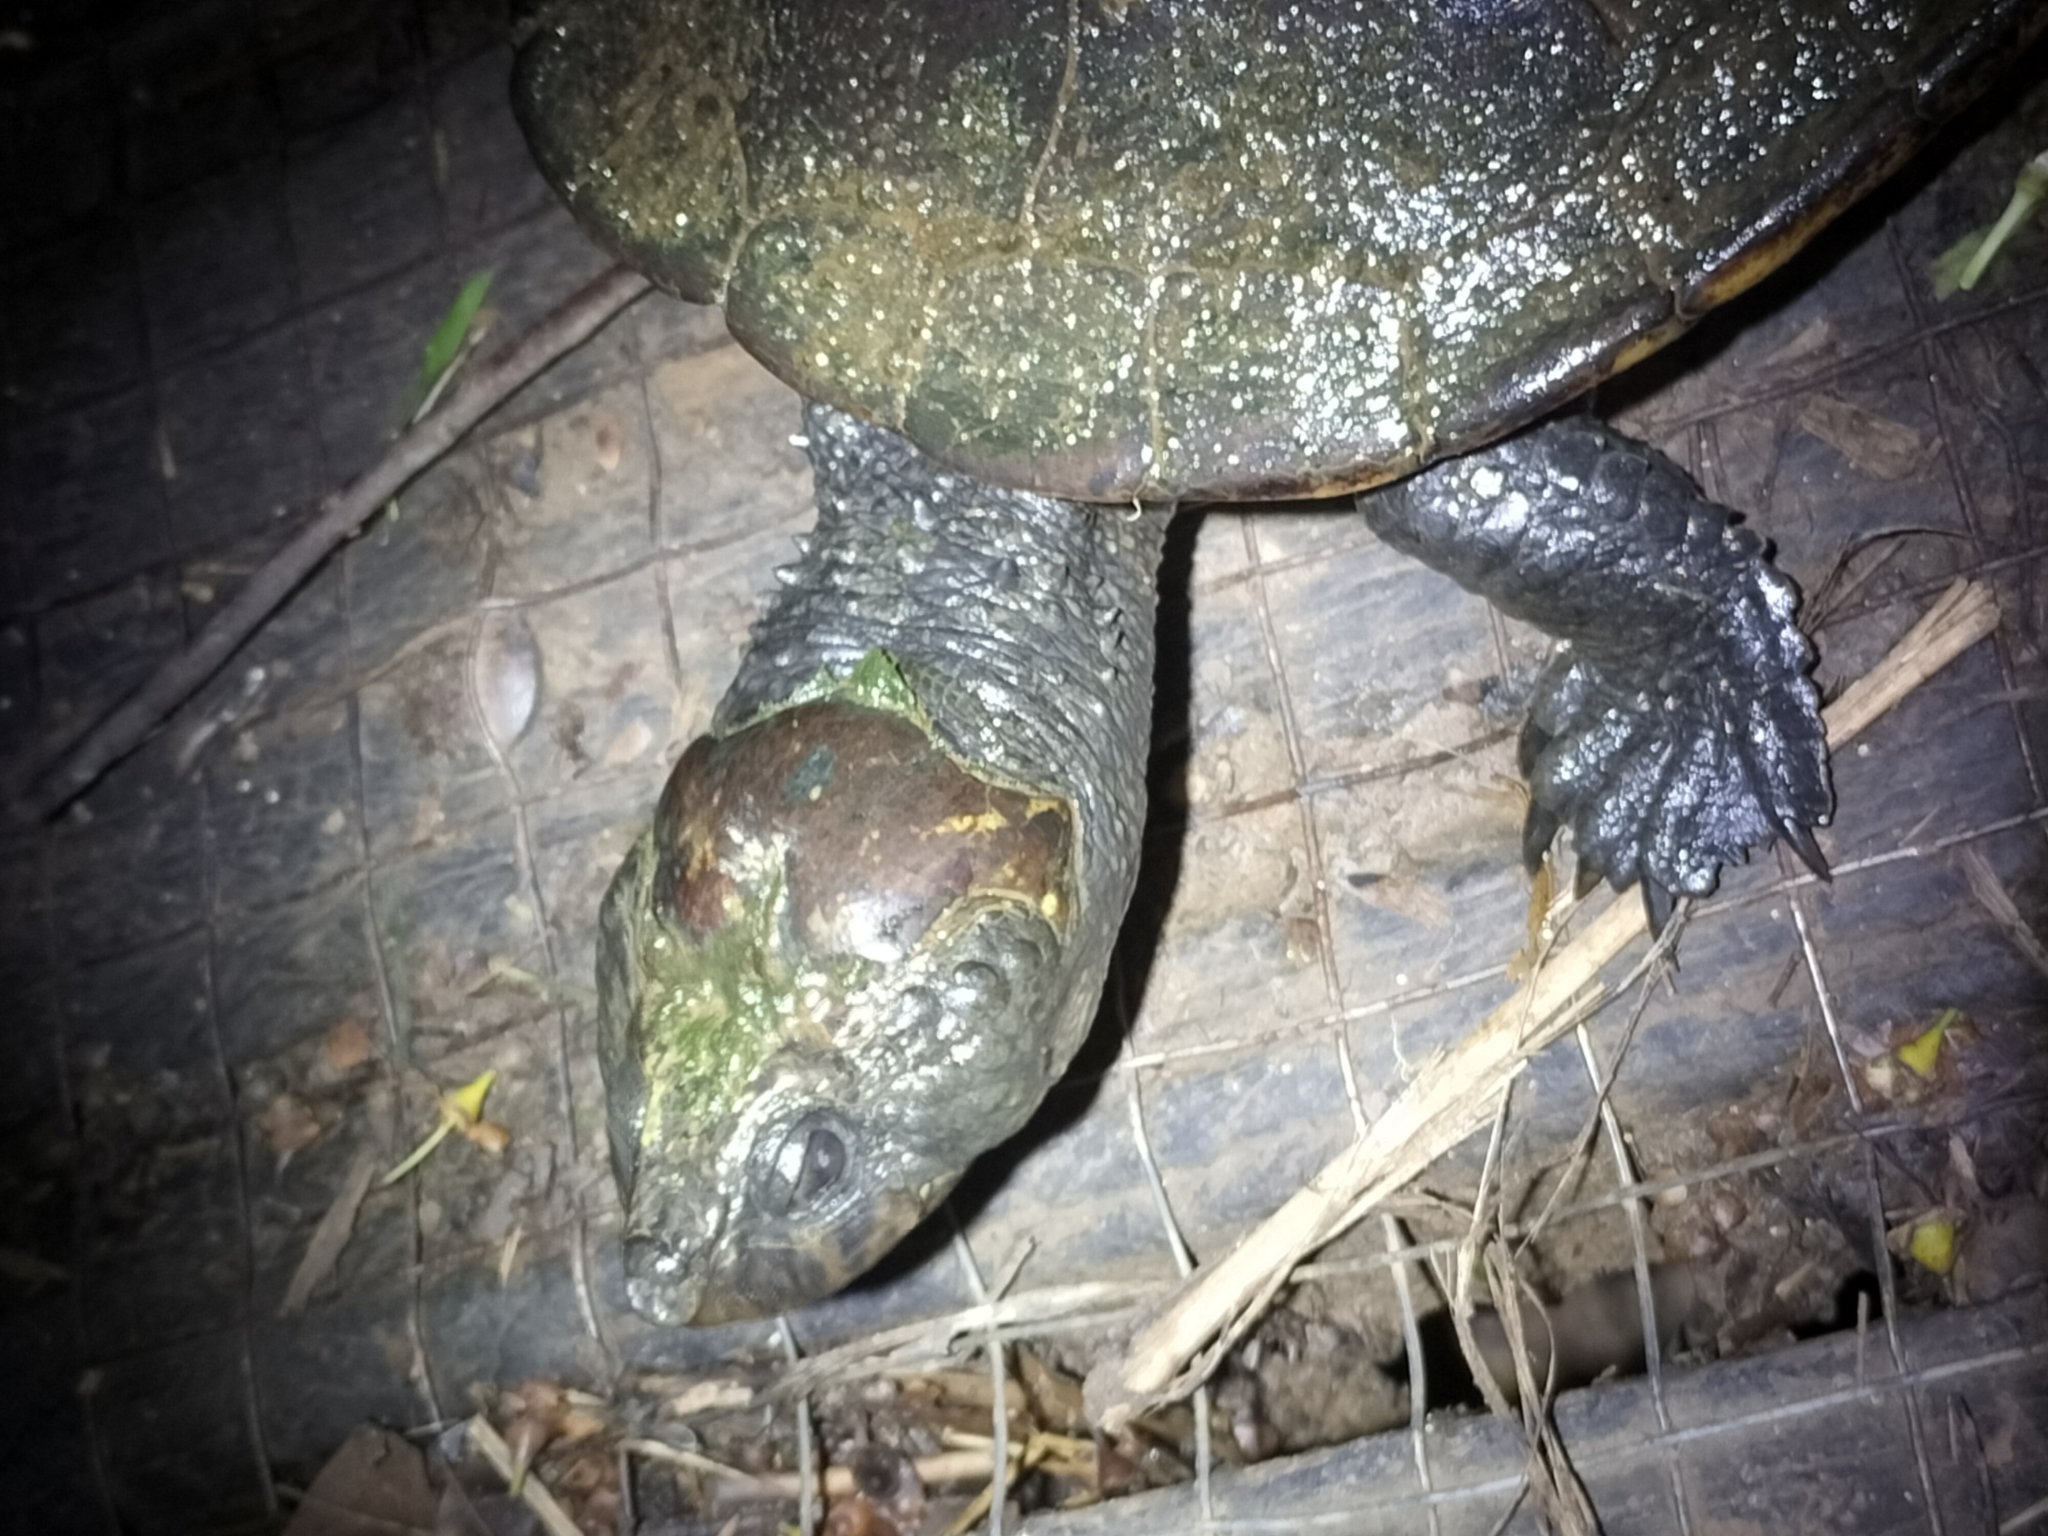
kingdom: Animalia
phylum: Chordata
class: Testudines
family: Chelidae
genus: Myuchelys
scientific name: Myuchelys latisternum
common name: Serrated snapping turtle
